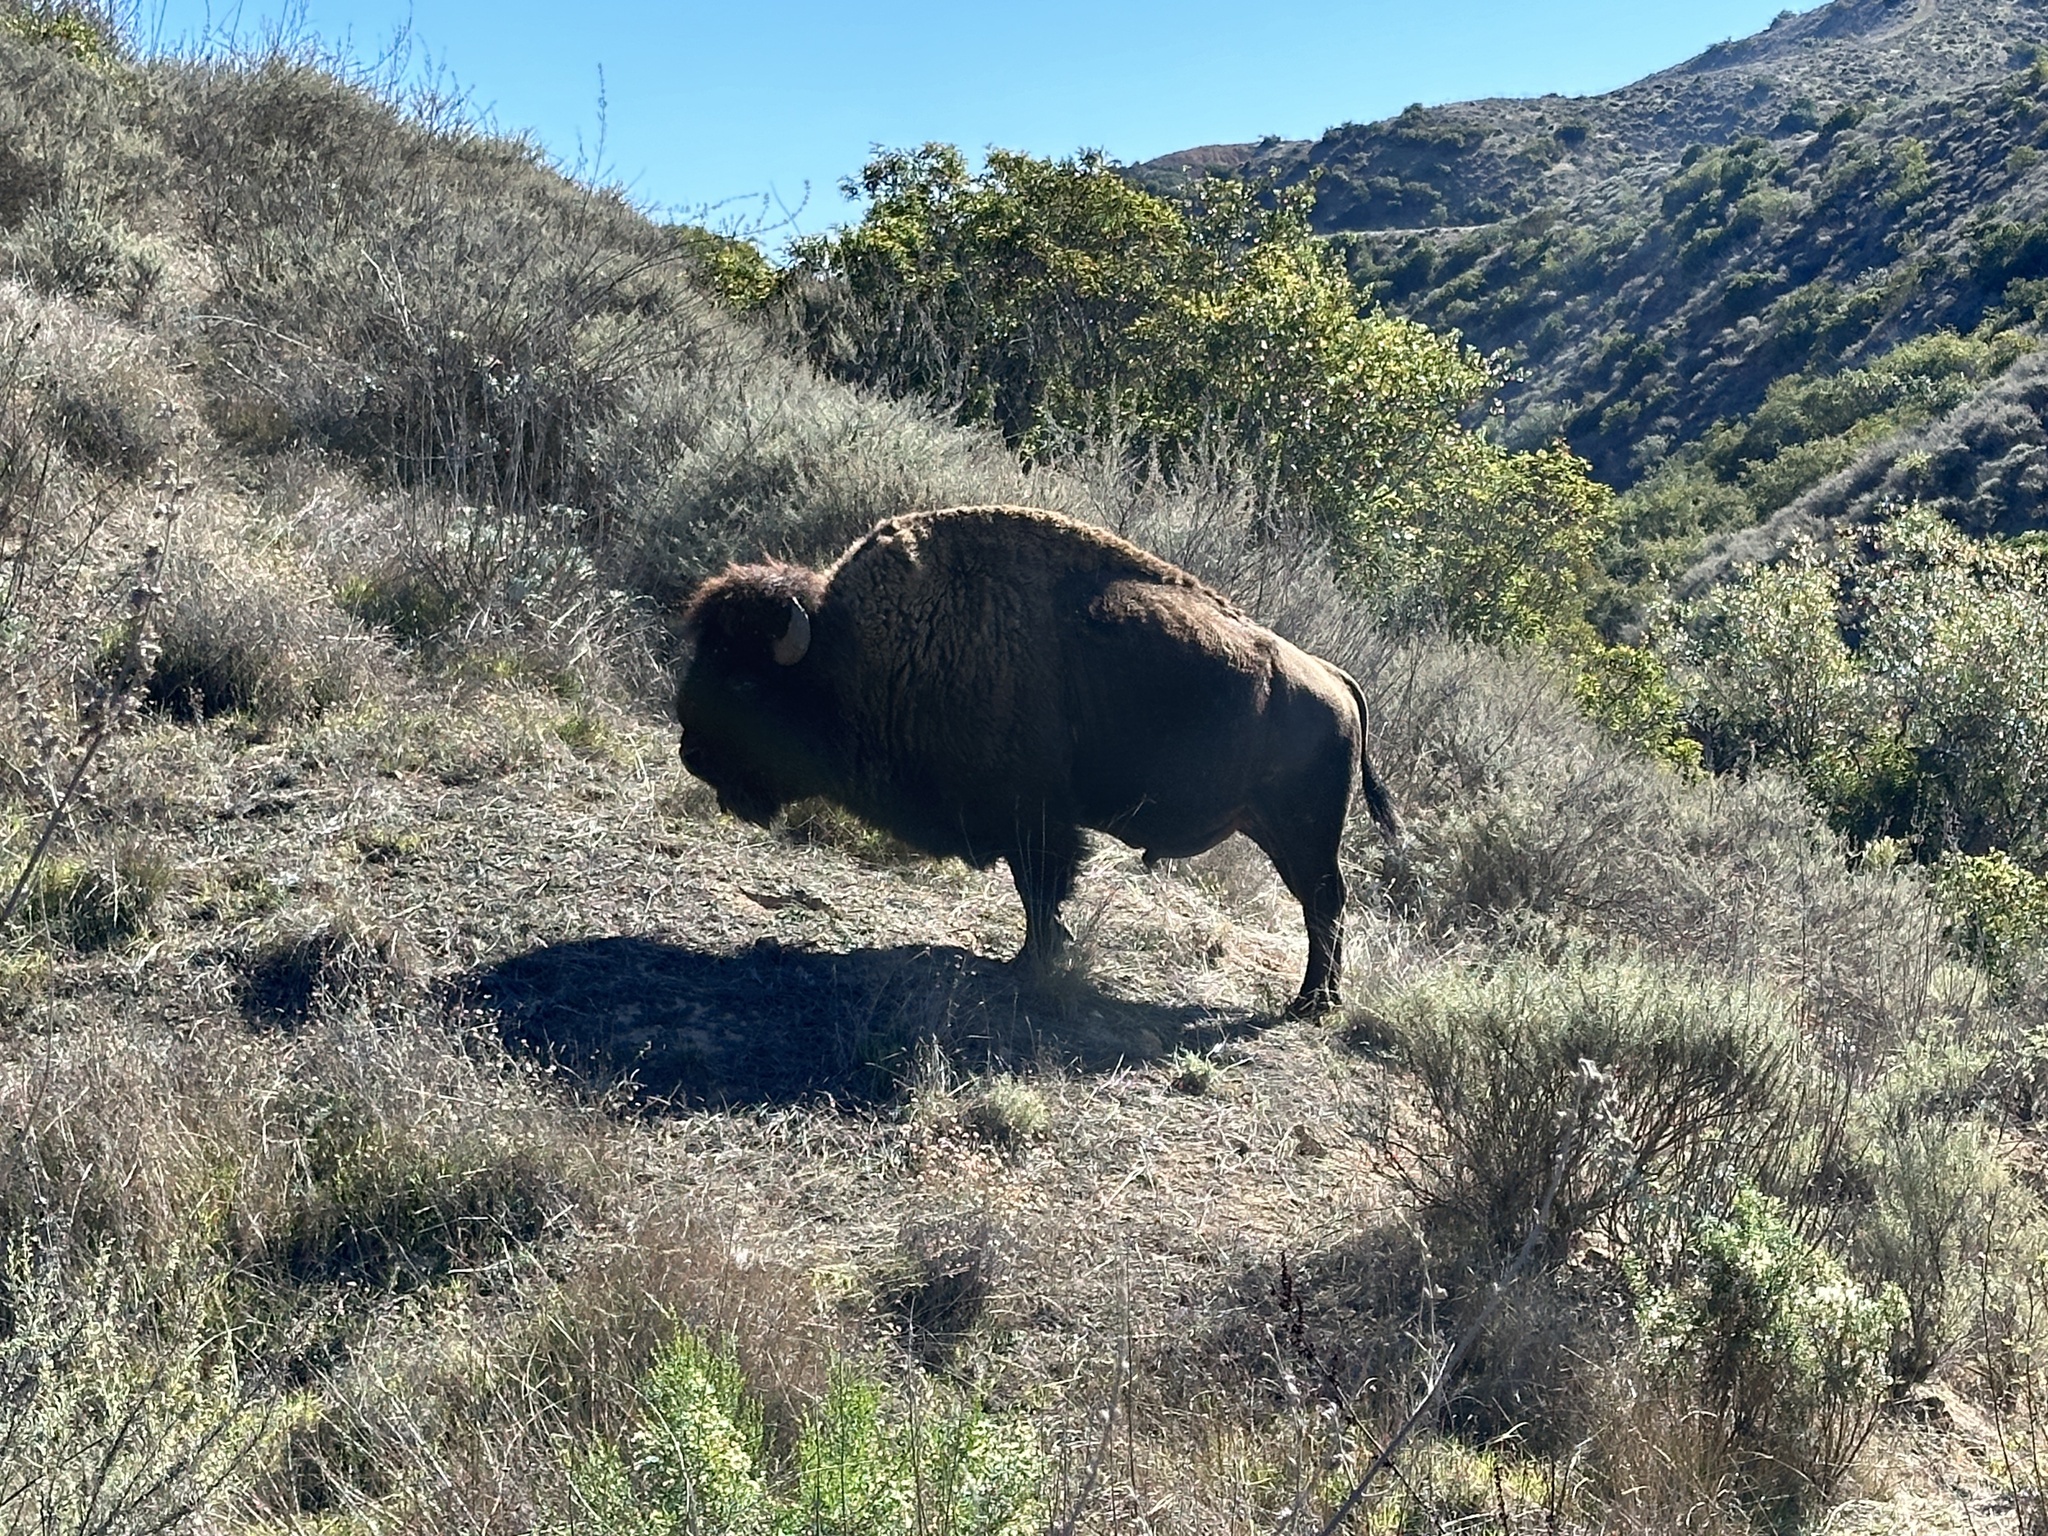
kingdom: Animalia
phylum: Chordata
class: Mammalia
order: Artiodactyla
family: Bovidae
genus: Bison
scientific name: Bison bison
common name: American bison
